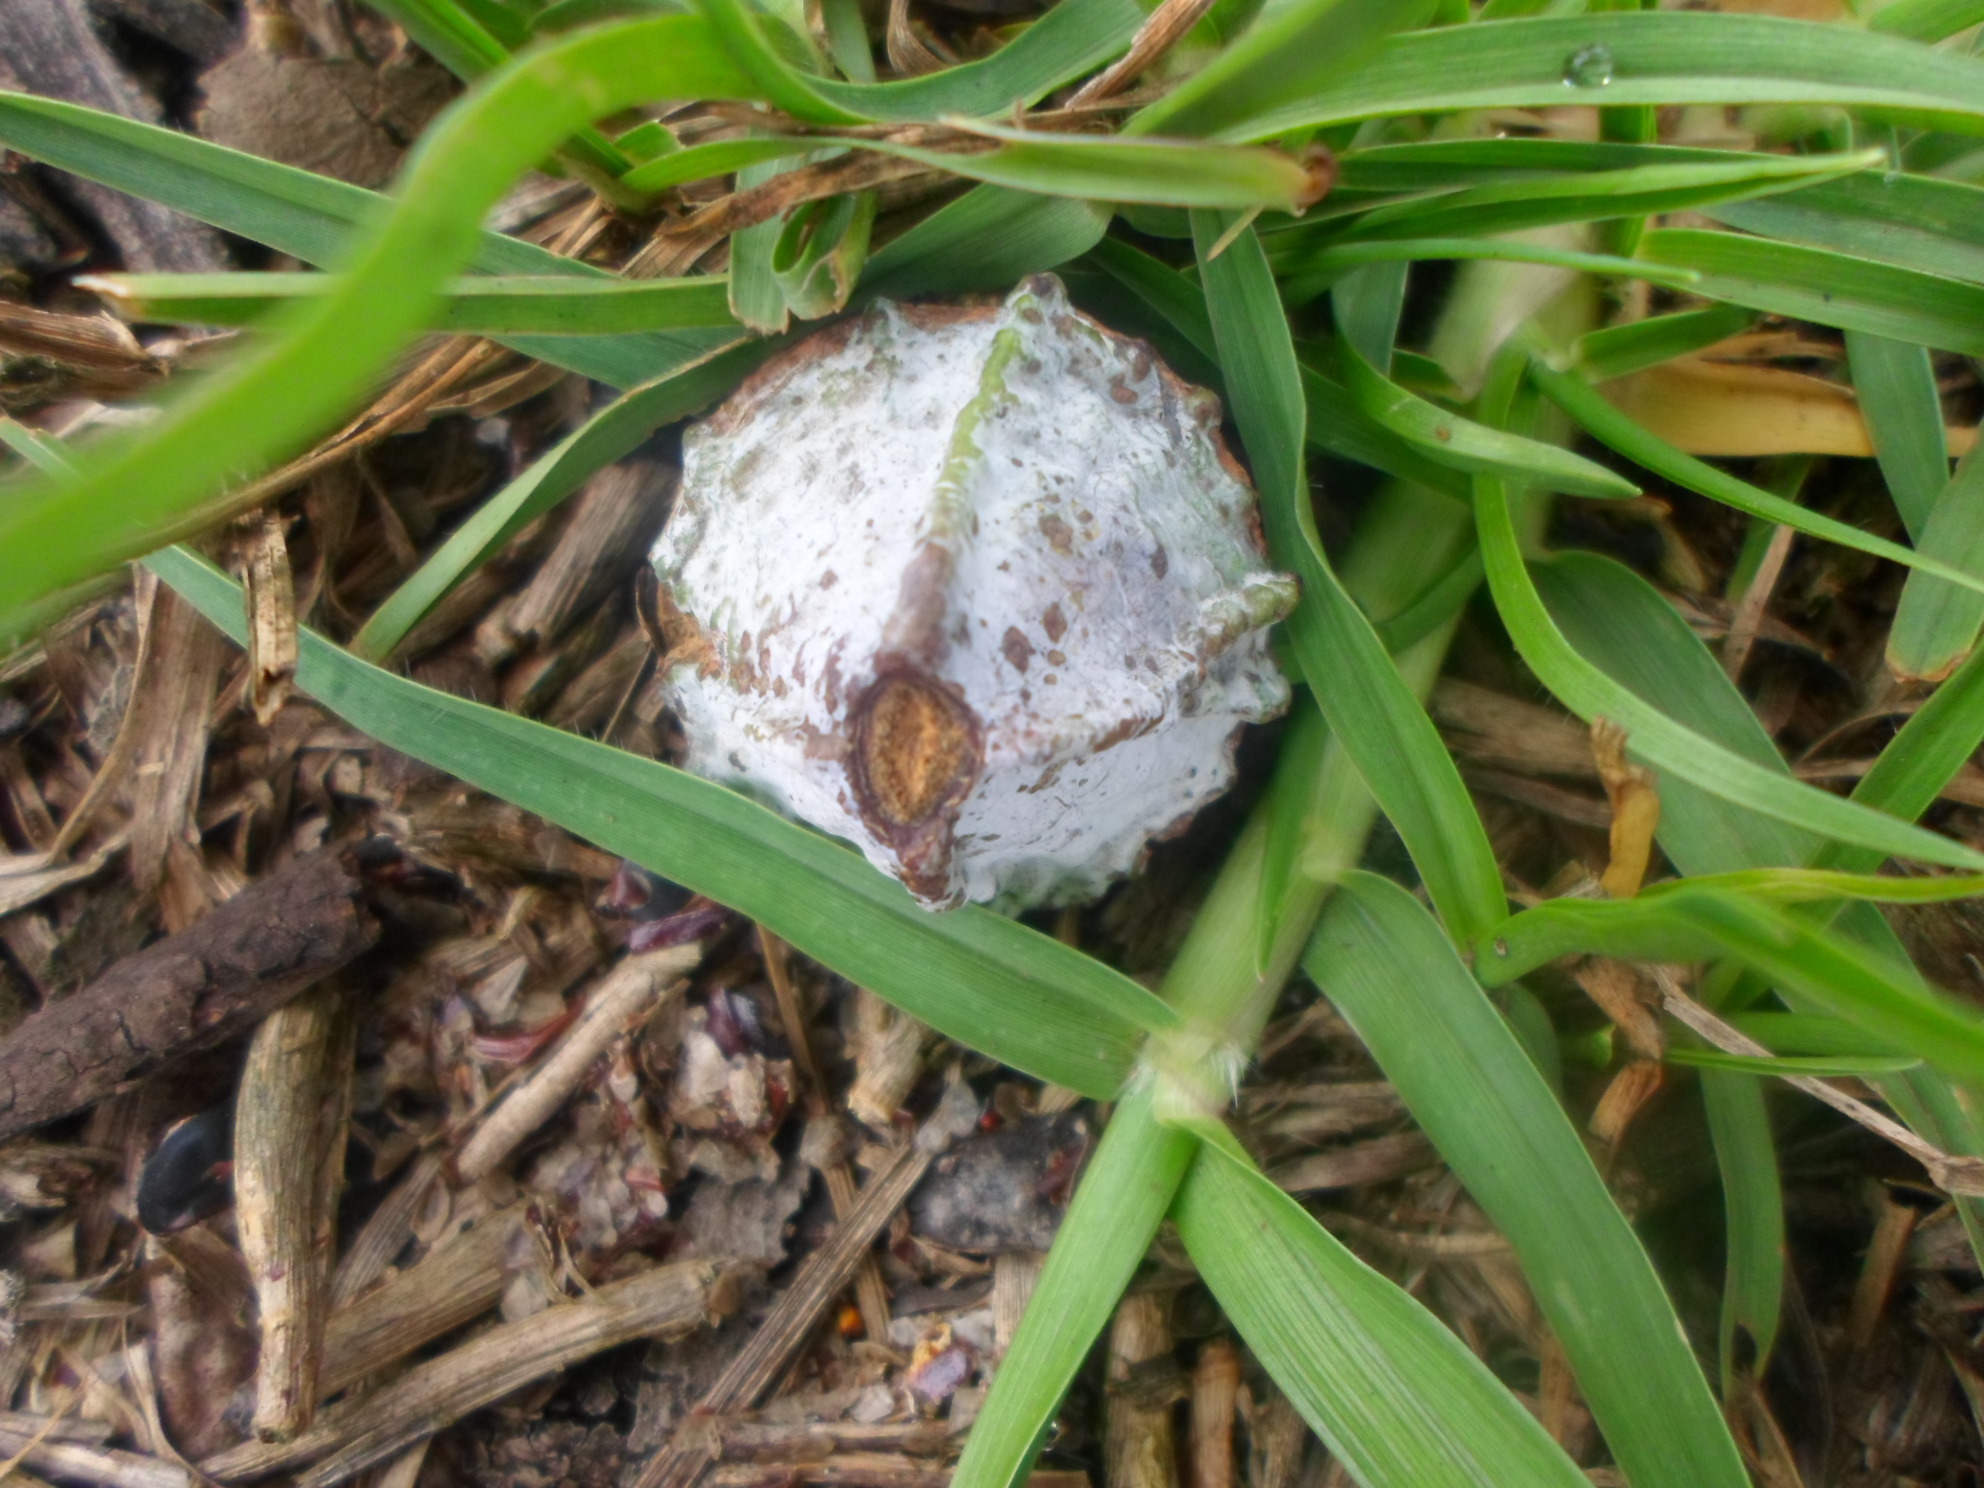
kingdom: Plantae
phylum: Tracheophyta
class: Magnoliopsida
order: Myrtales
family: Myrtaceae
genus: Eucalyptus
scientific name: Eucalyptus globulus
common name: Southern blue-gum
